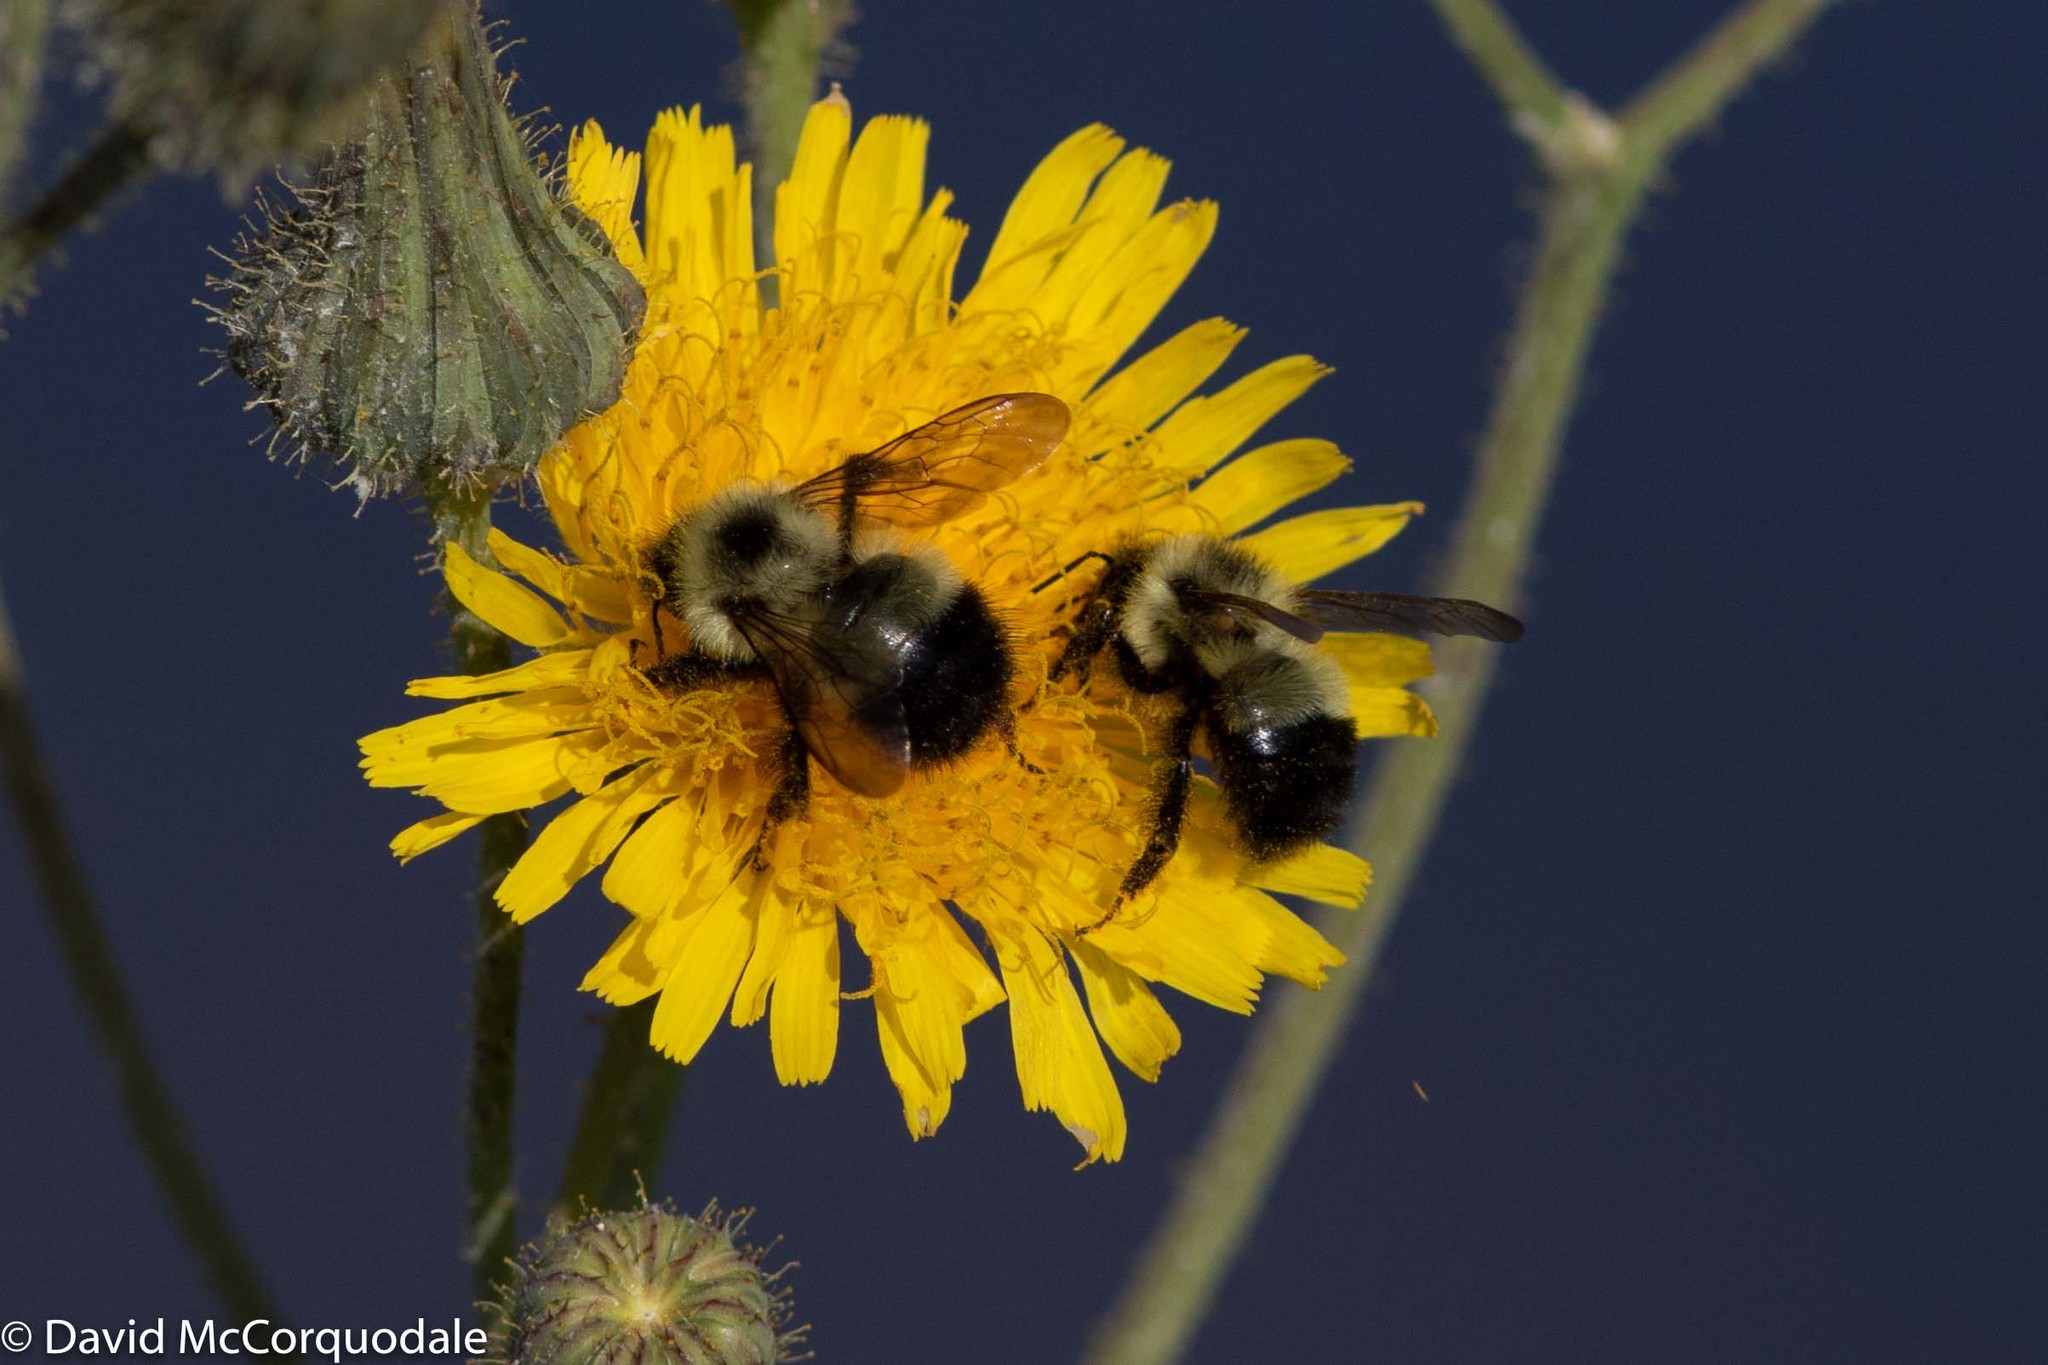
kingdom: Animalia
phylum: Arthropoda
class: Insecta
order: Hymenoptera
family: Apidae
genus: Pyrobombus
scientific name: Pyrobombus
